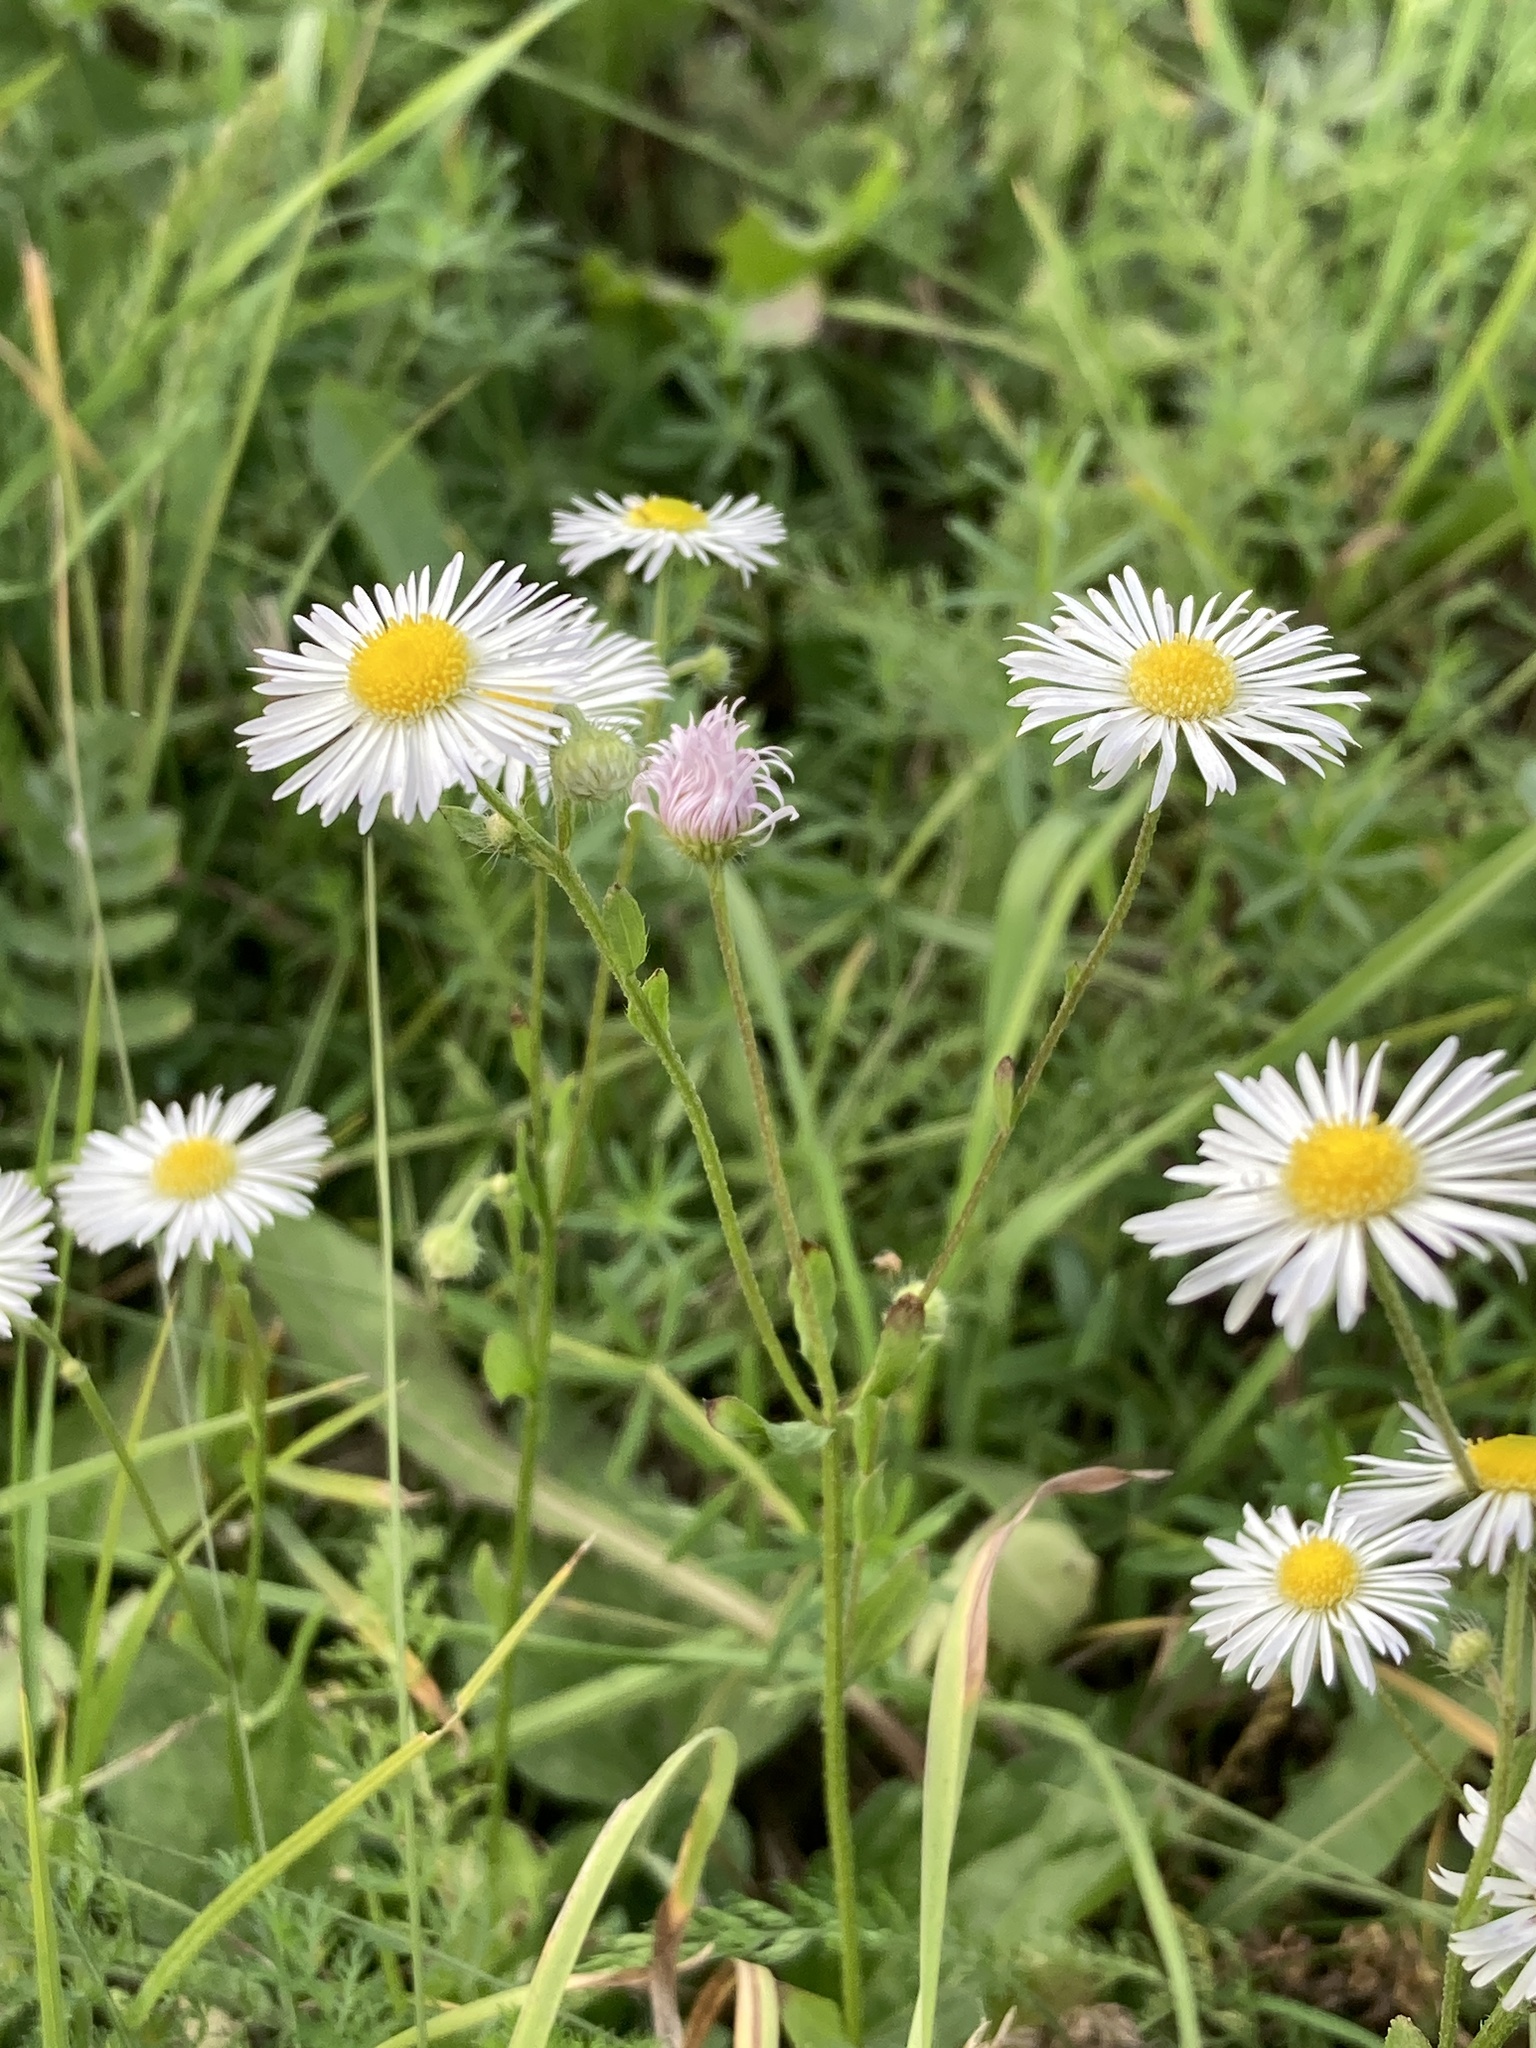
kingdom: Plantae
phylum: Tracheophyta
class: Magnoliopsida
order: Asterales
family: Asteraceae
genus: Erigeron
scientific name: Erigeron annuus
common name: Tall fleabane
